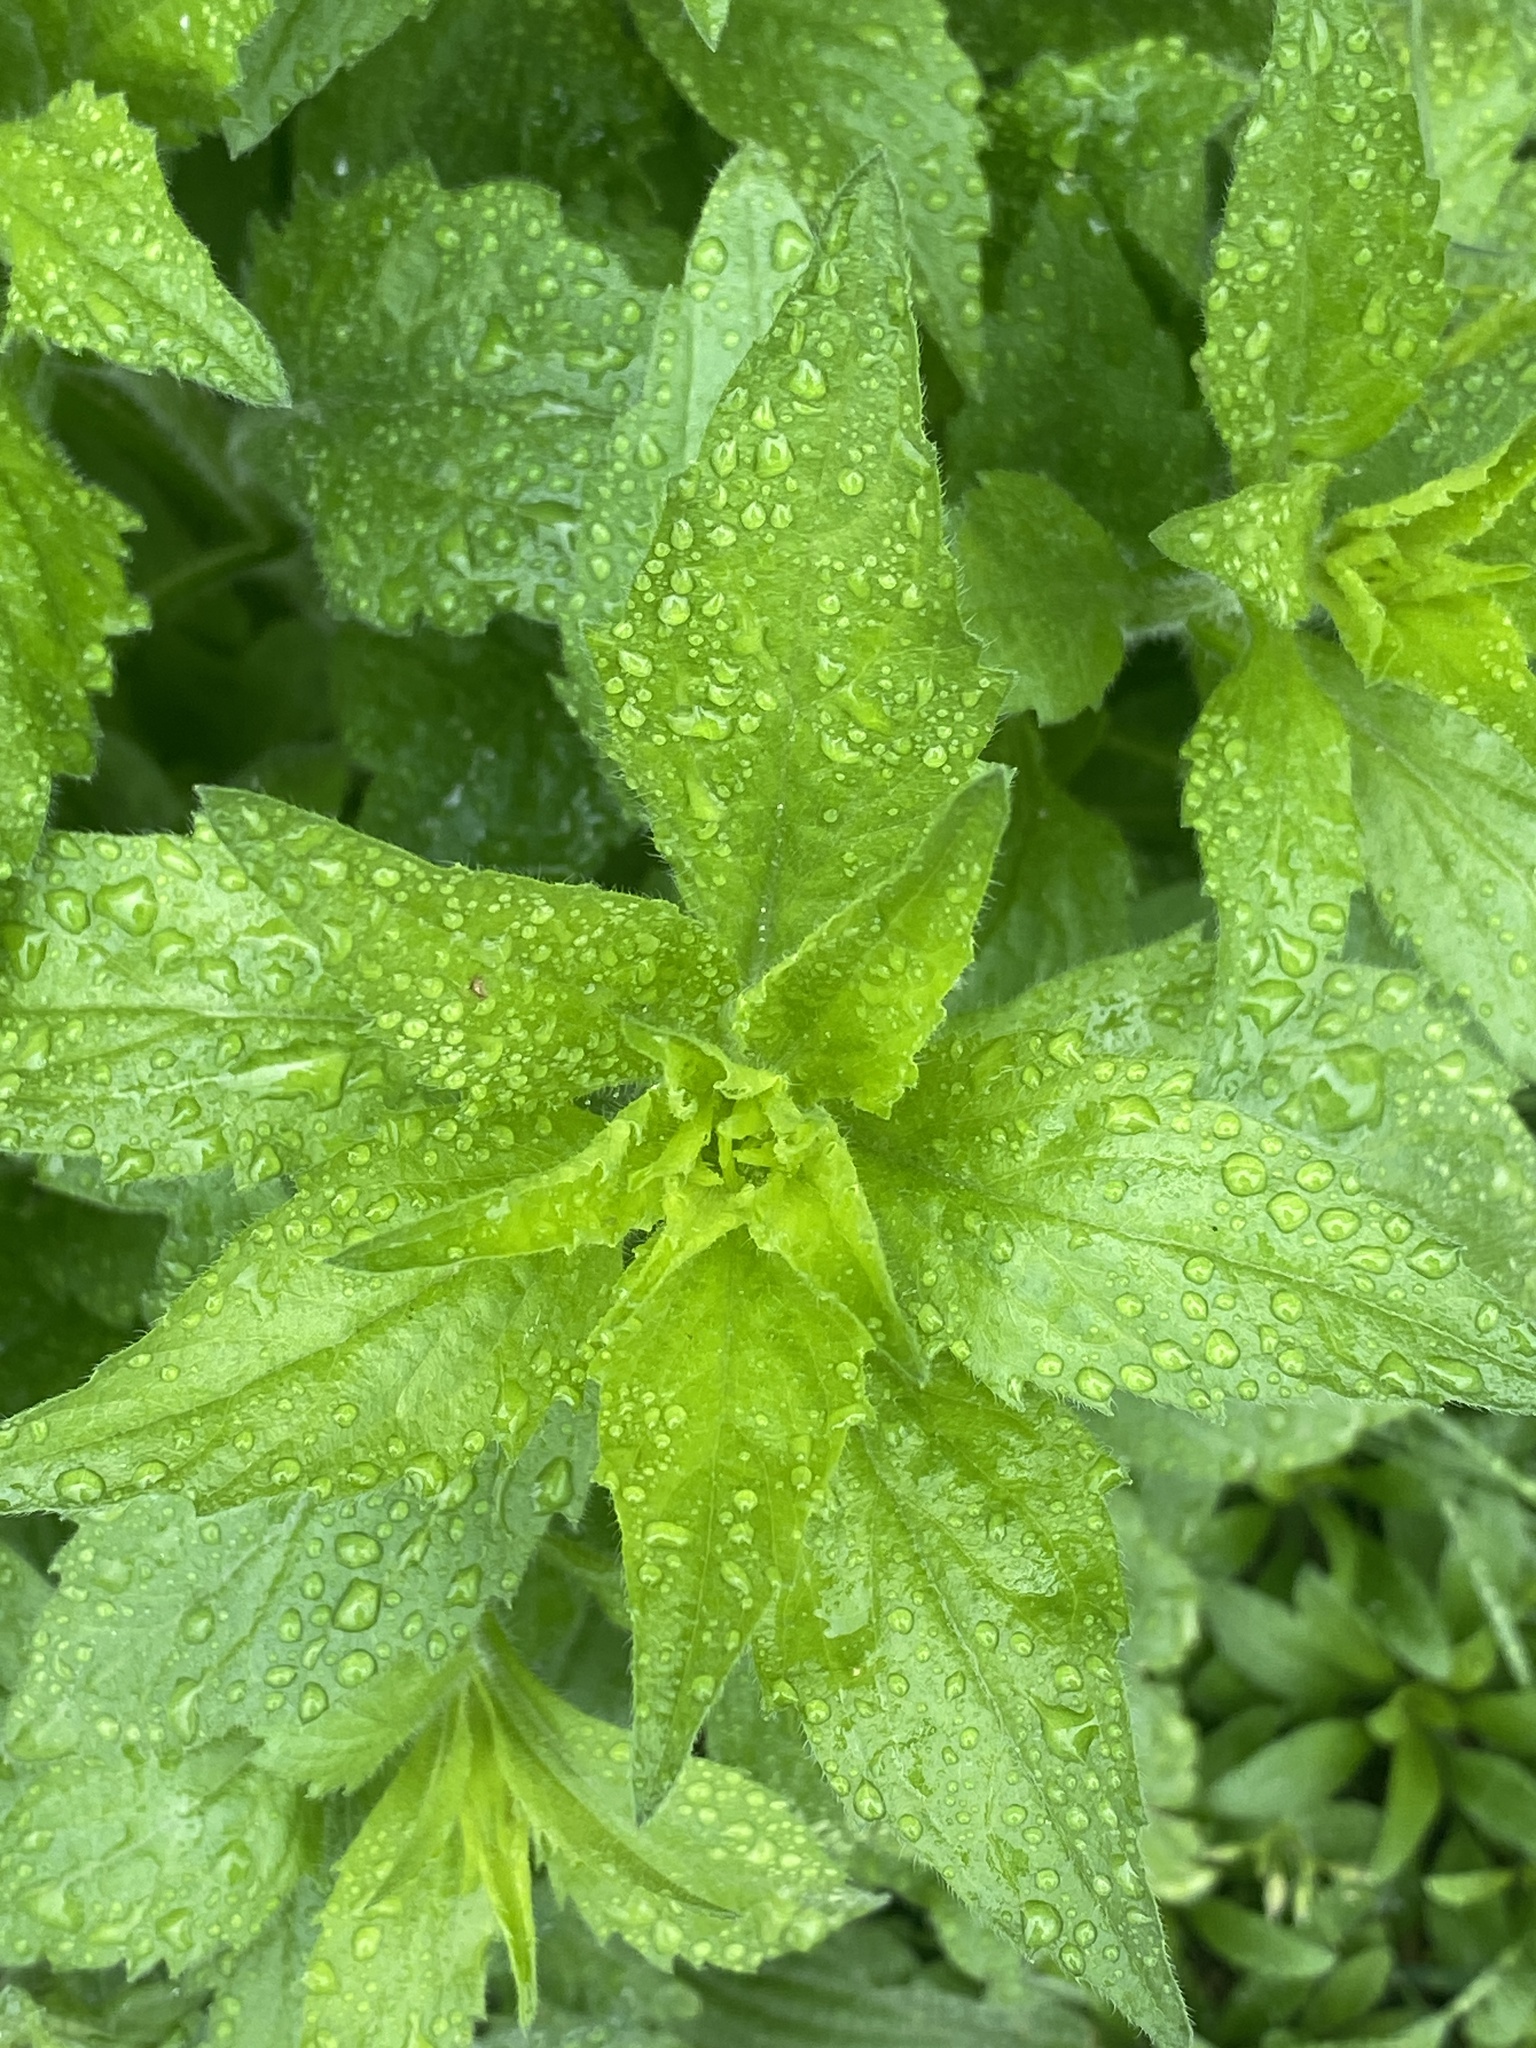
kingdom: Plantae
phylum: Tracheophyta
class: Magnoliopsida
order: Asterales
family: Asteraceae
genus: Erigeron
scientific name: Erigeron annuus
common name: Tall fleabane
